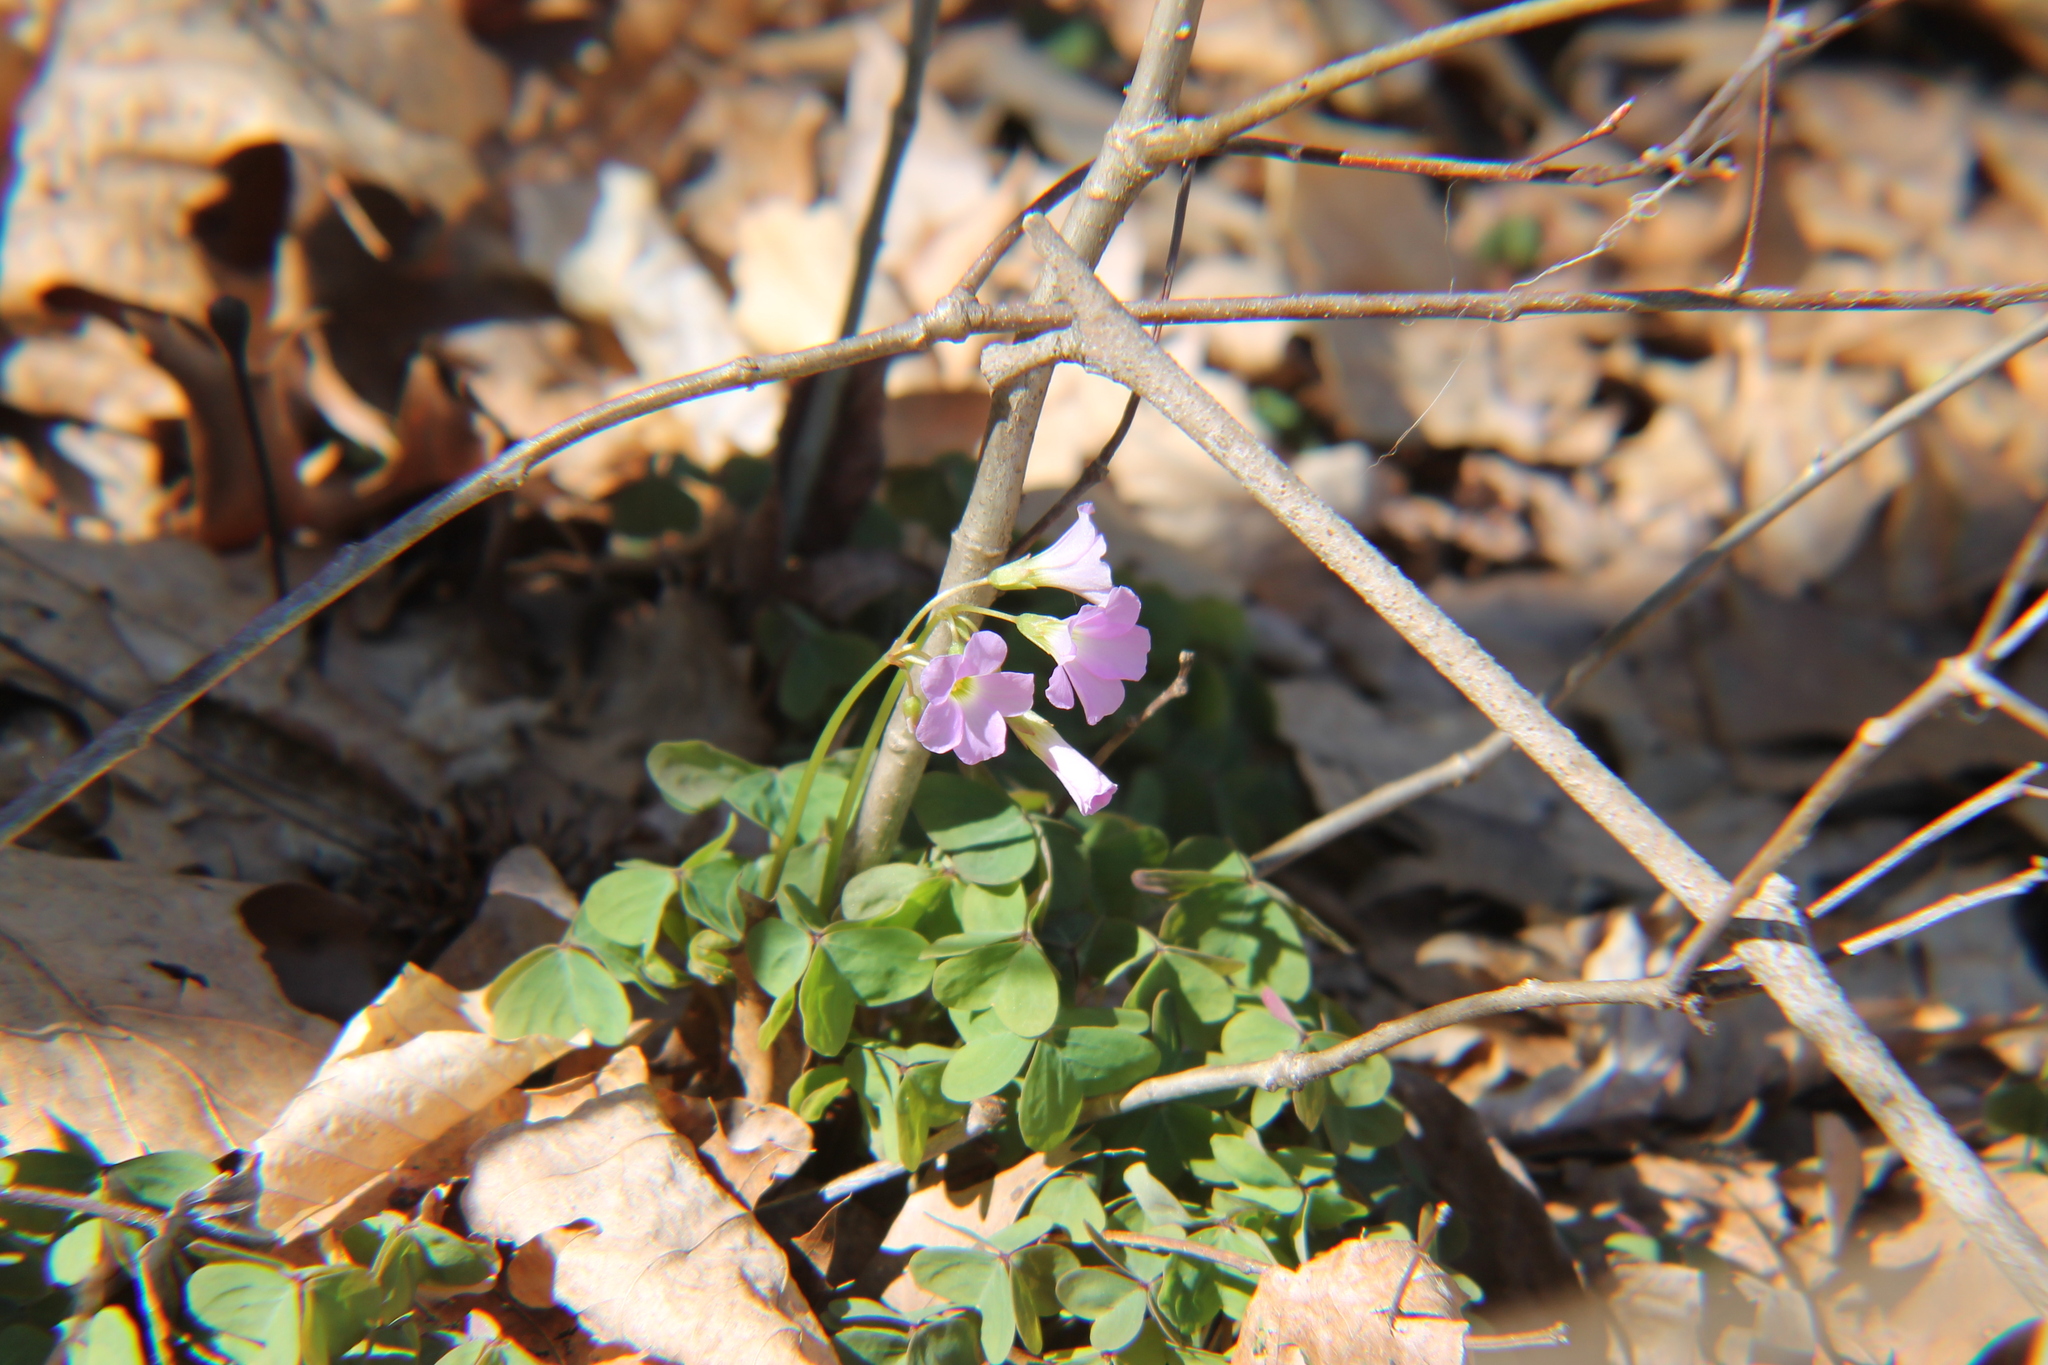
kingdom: Plantae
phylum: Tracheophyta
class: Magnoliopsida
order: Oxalidales
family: Oxalidaceae
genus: Oxalis
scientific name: Oxalis violacea
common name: Violet wood-sorrel
